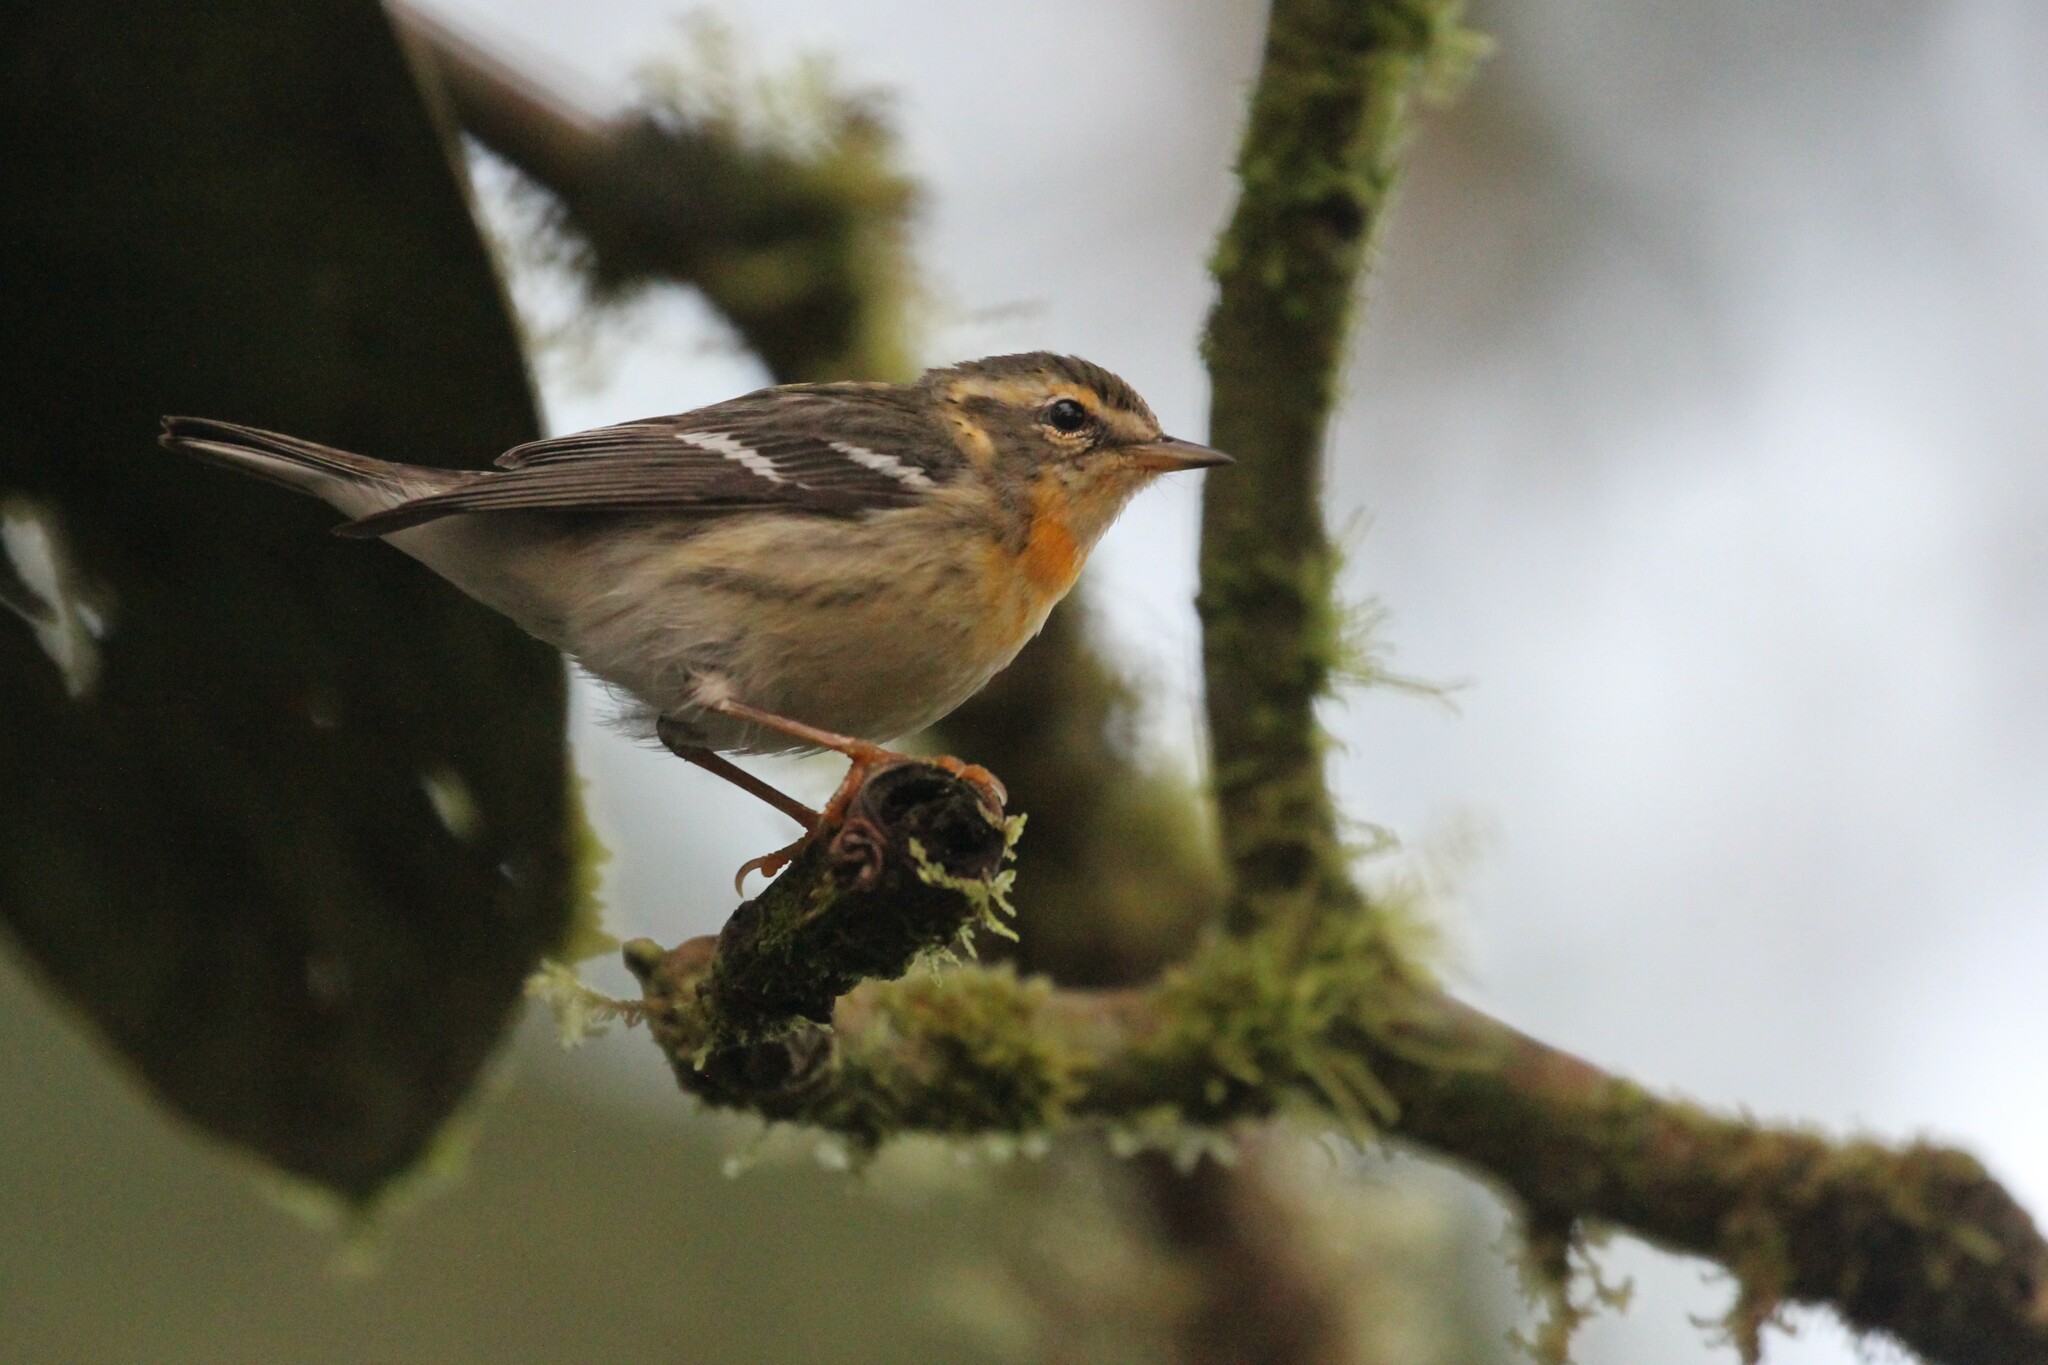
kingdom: Animalia
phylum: Chordata
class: Aves
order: Passeriformes
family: Parulidae
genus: Setophaga
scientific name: Setophaga fusca
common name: Blackburnian warbler
